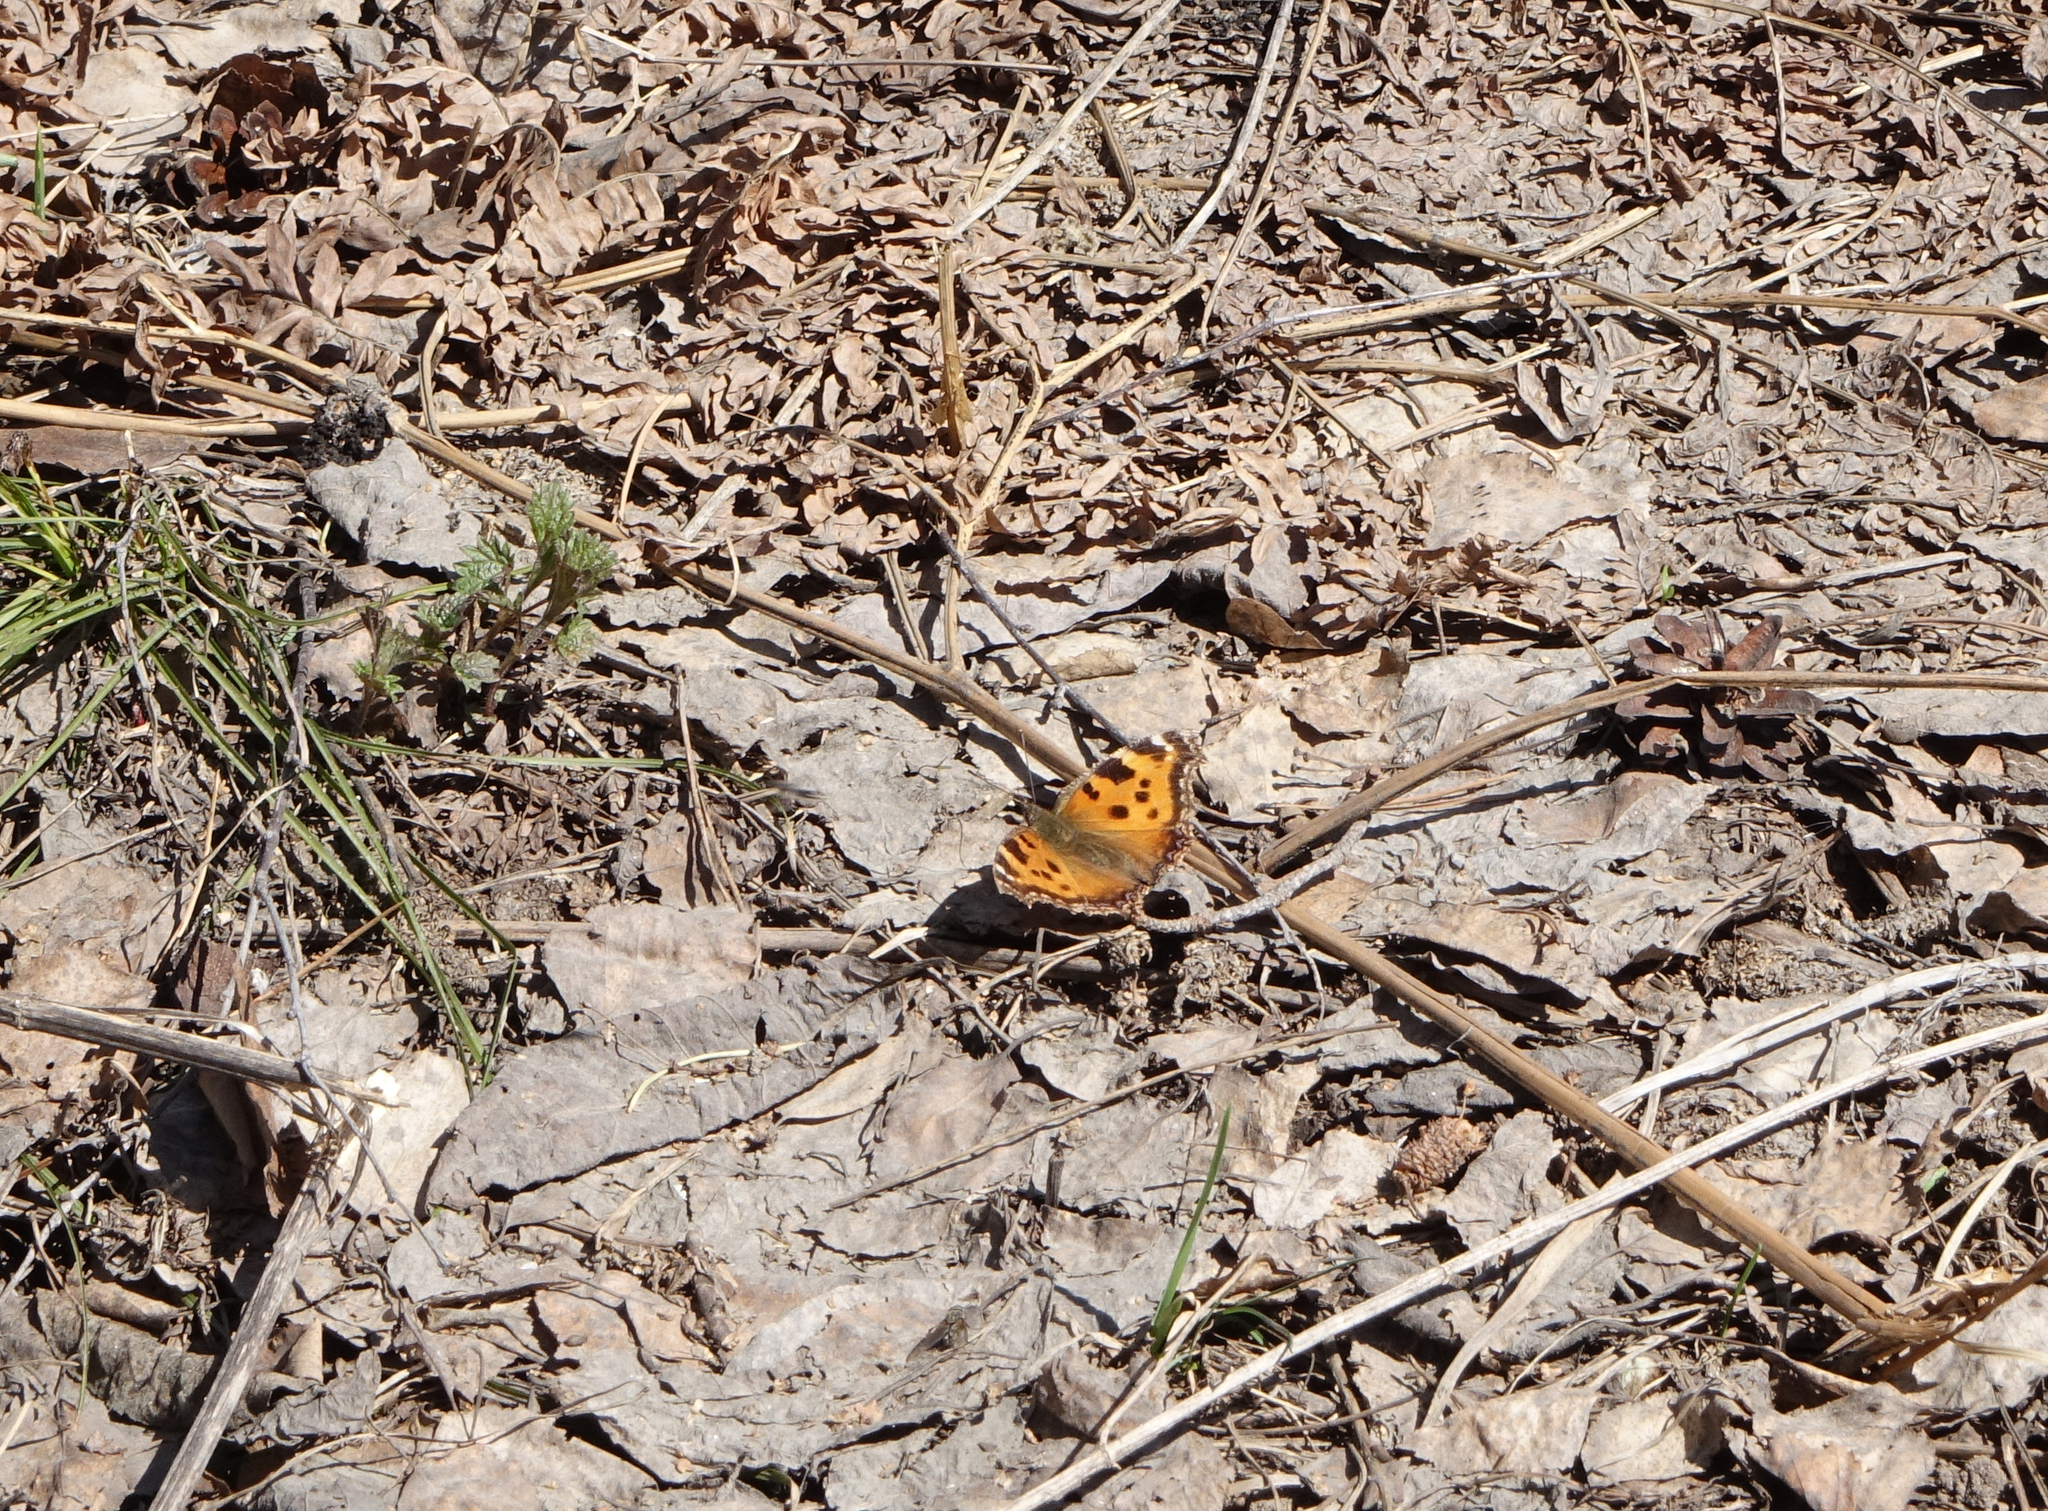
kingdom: Animalia
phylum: Arthropoda
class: Insecta
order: Lepidoptera
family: Nymphalidae
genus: Nymphalis
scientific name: Nymphalis xanthomelas
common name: Scarce tortoiseshell
